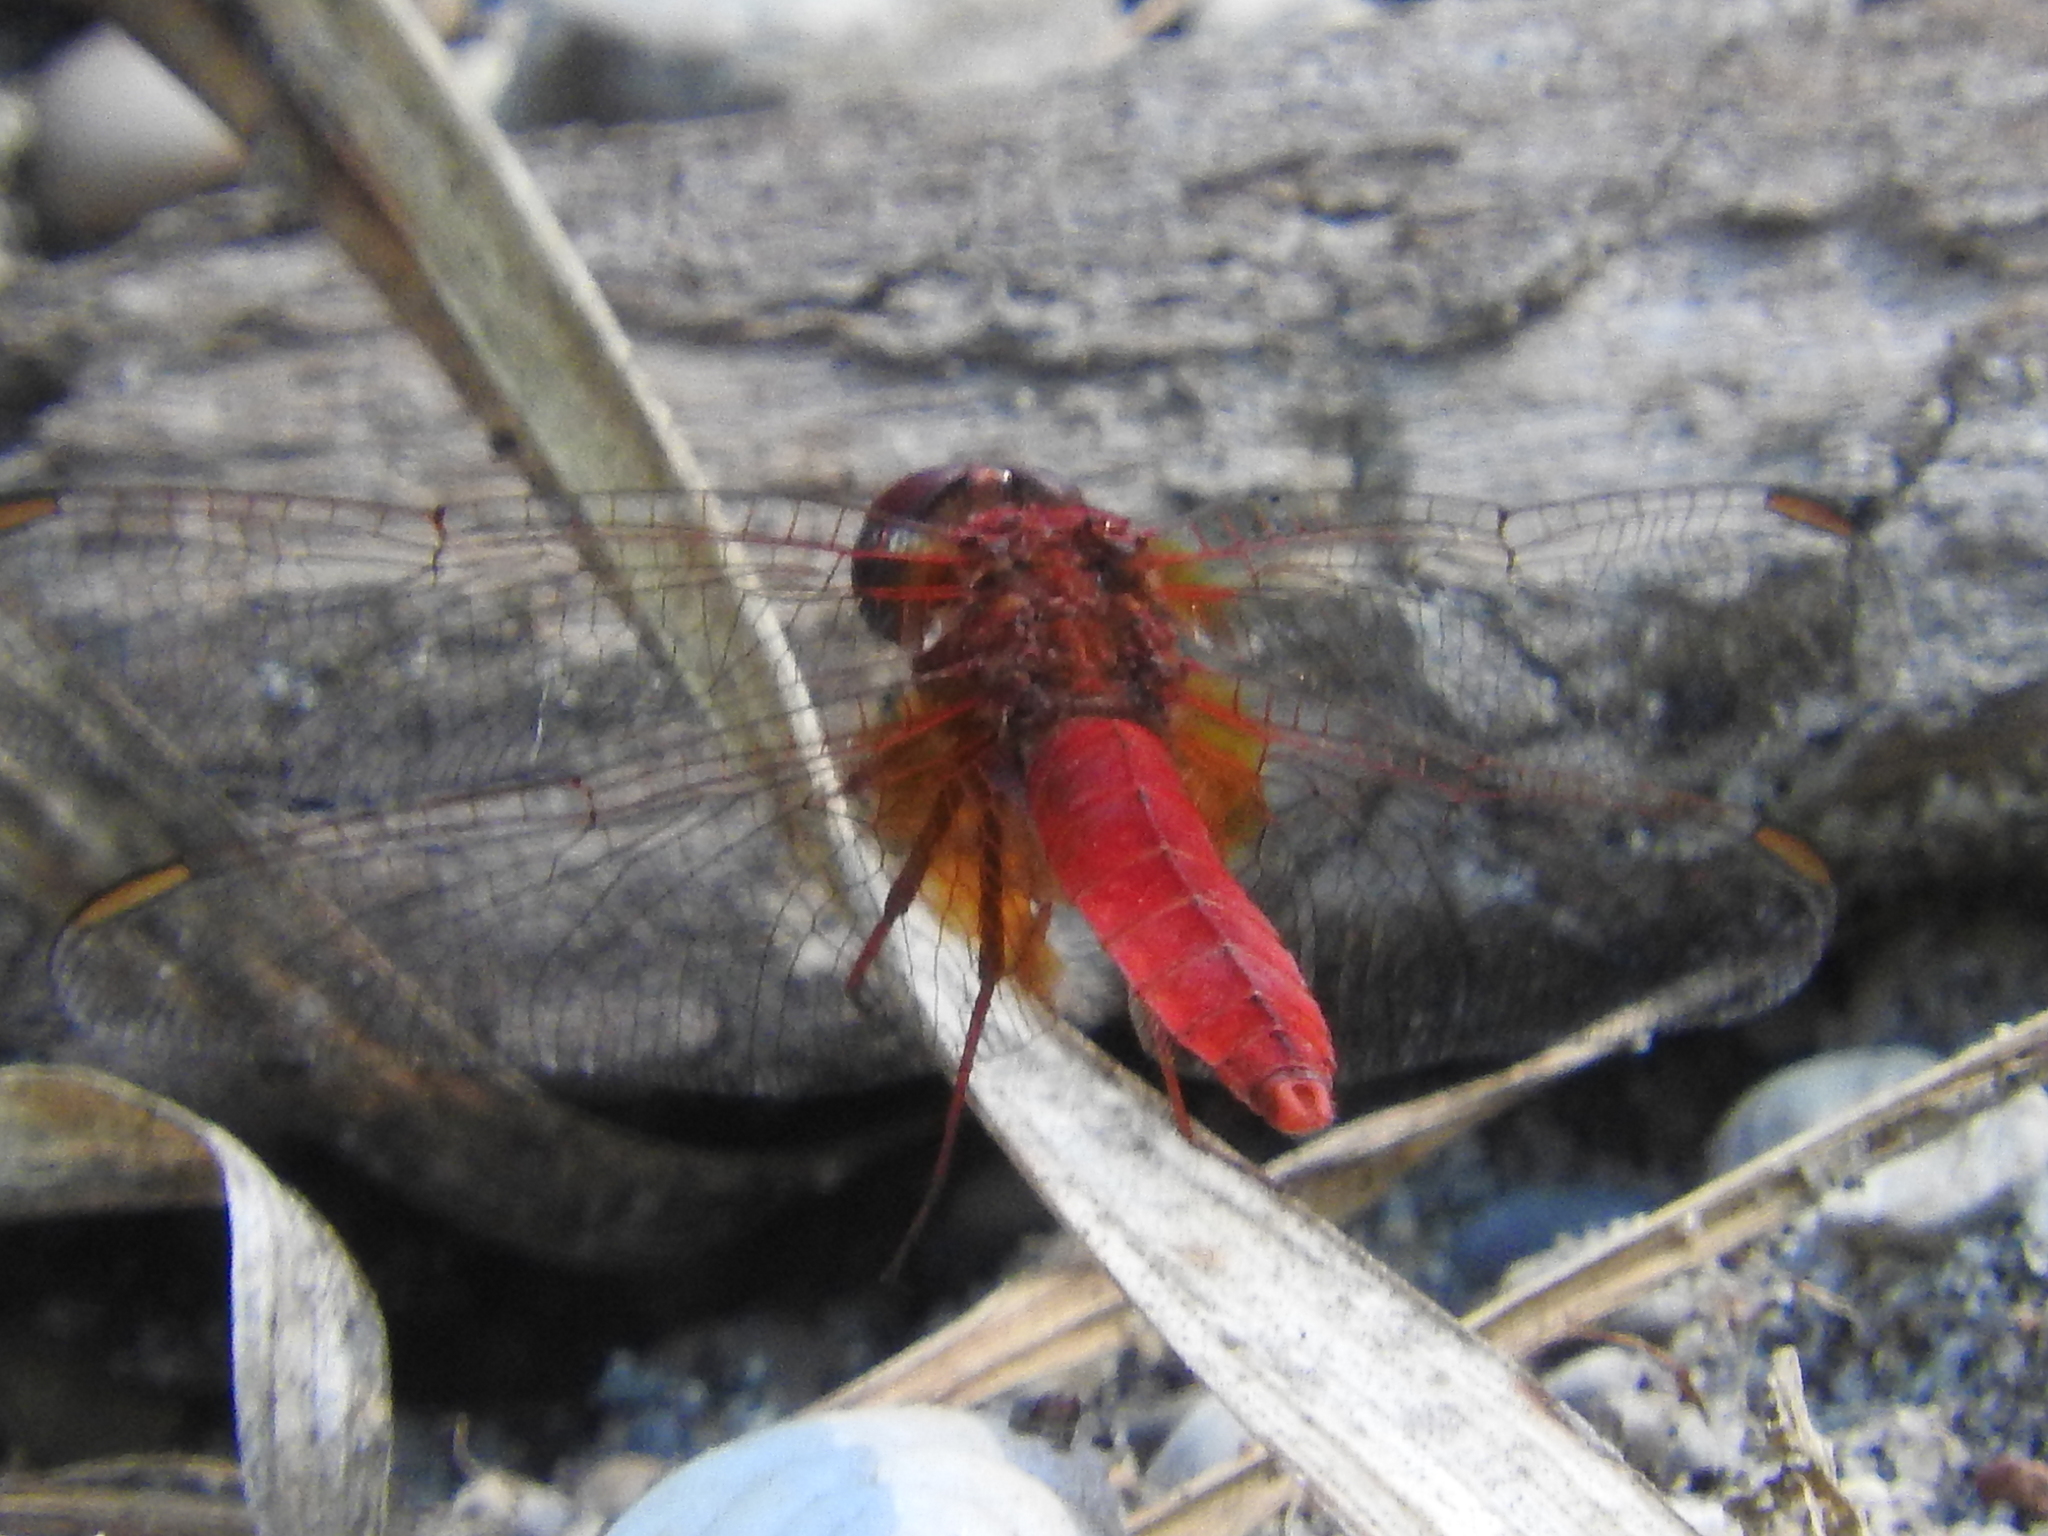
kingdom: Animalia
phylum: Arthropoda
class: Insecta
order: Odonata
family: Libellulidae
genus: Crocothemis
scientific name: Crocothemis erythraea
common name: Scarlet dragonfly
